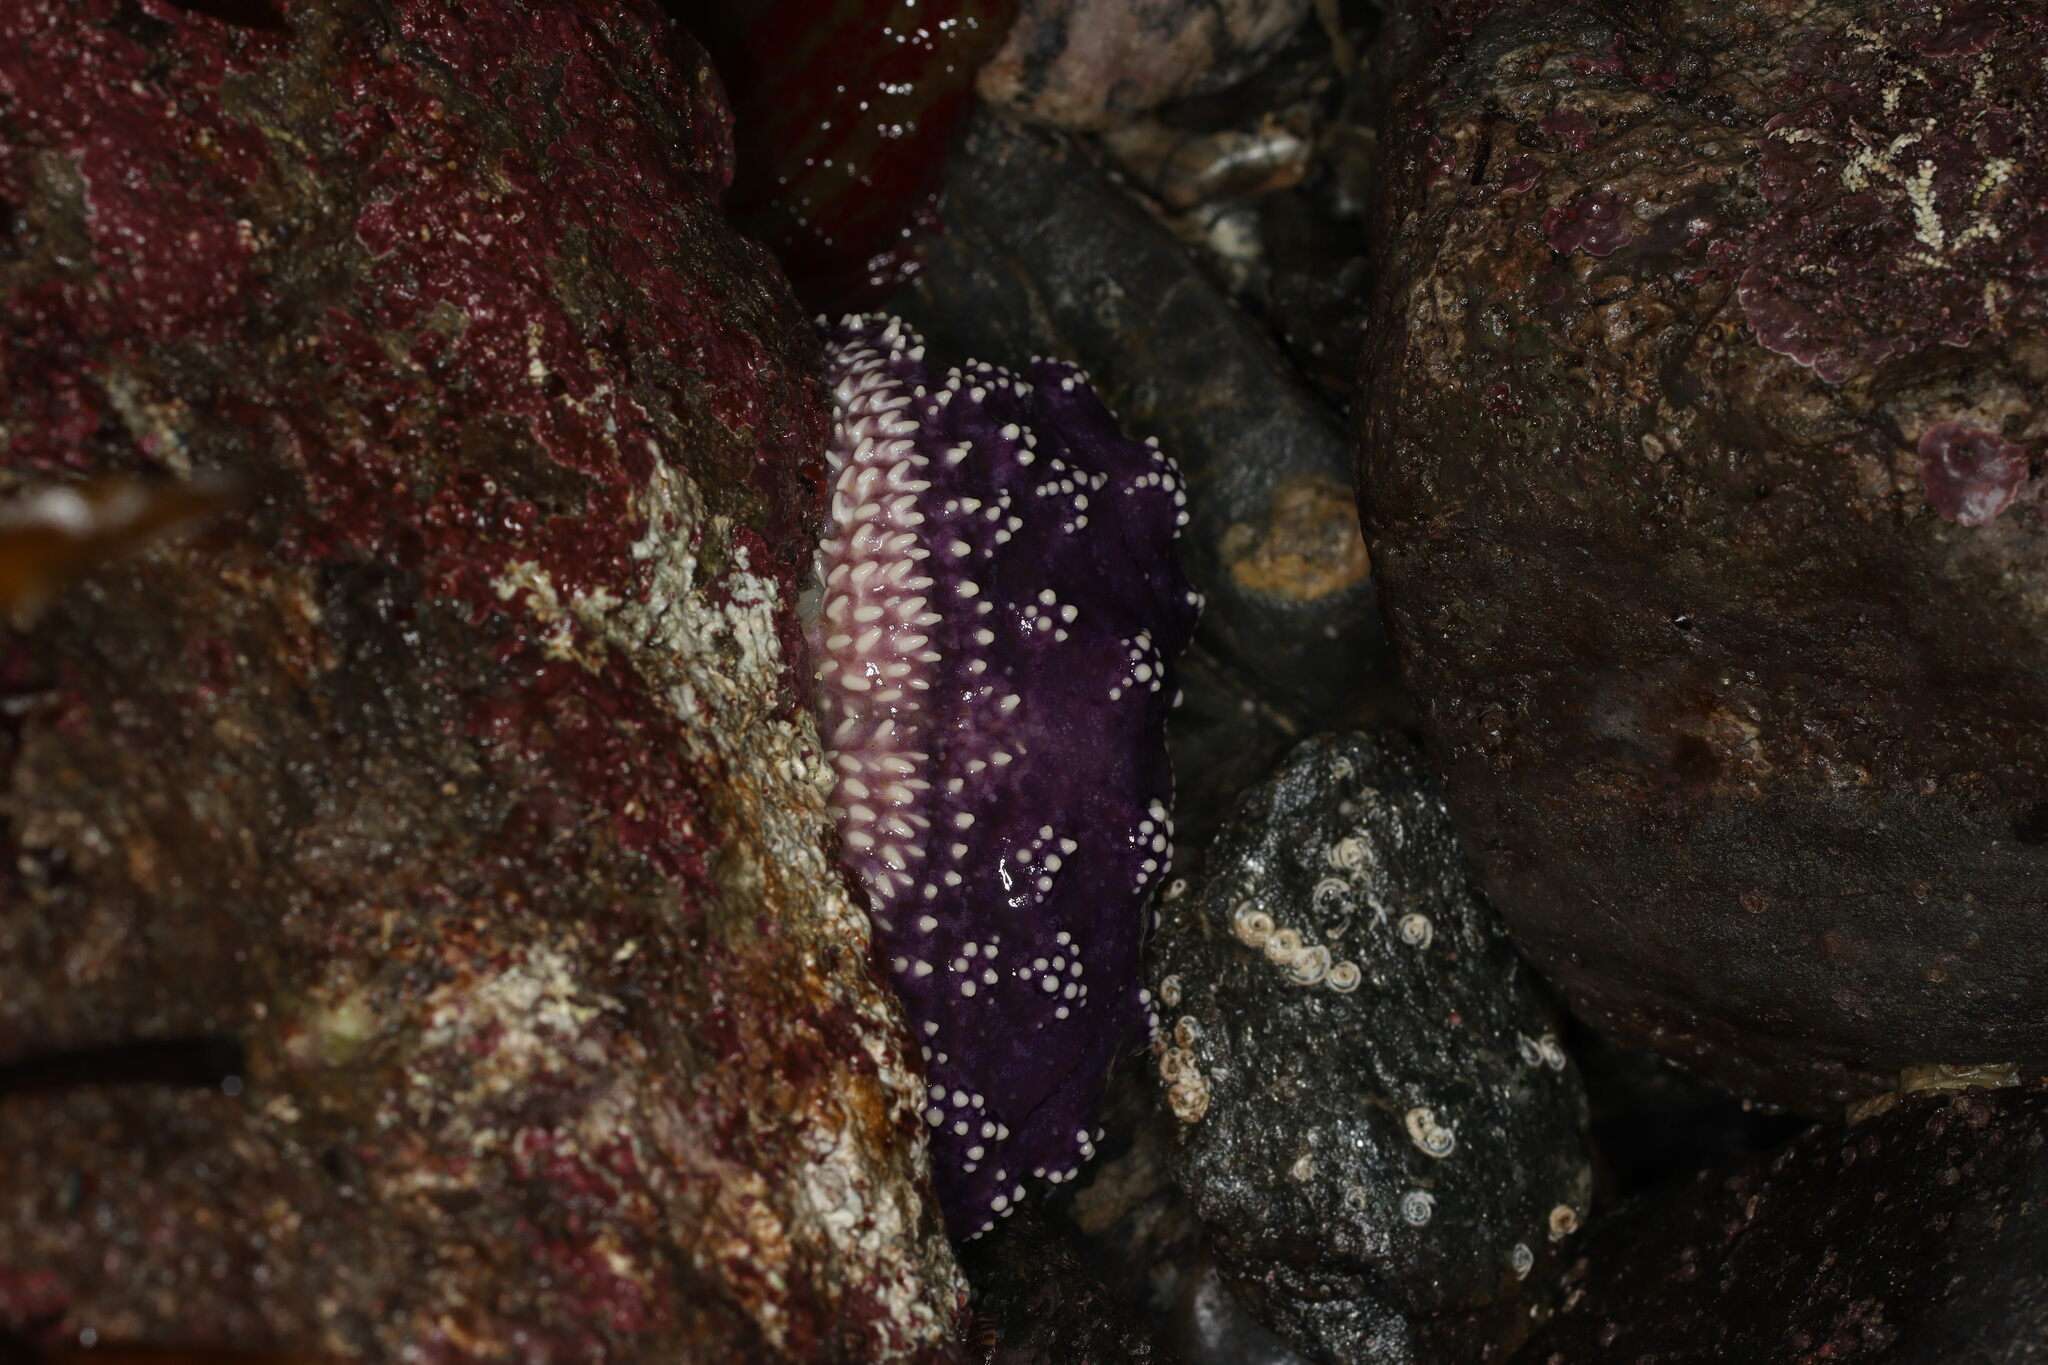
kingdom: Animalia
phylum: Echinodermata
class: Asteroidea
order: Forcipulatida
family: Asteriidae
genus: Pisaster
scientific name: Pisaster ochraceus
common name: Ochre stars
